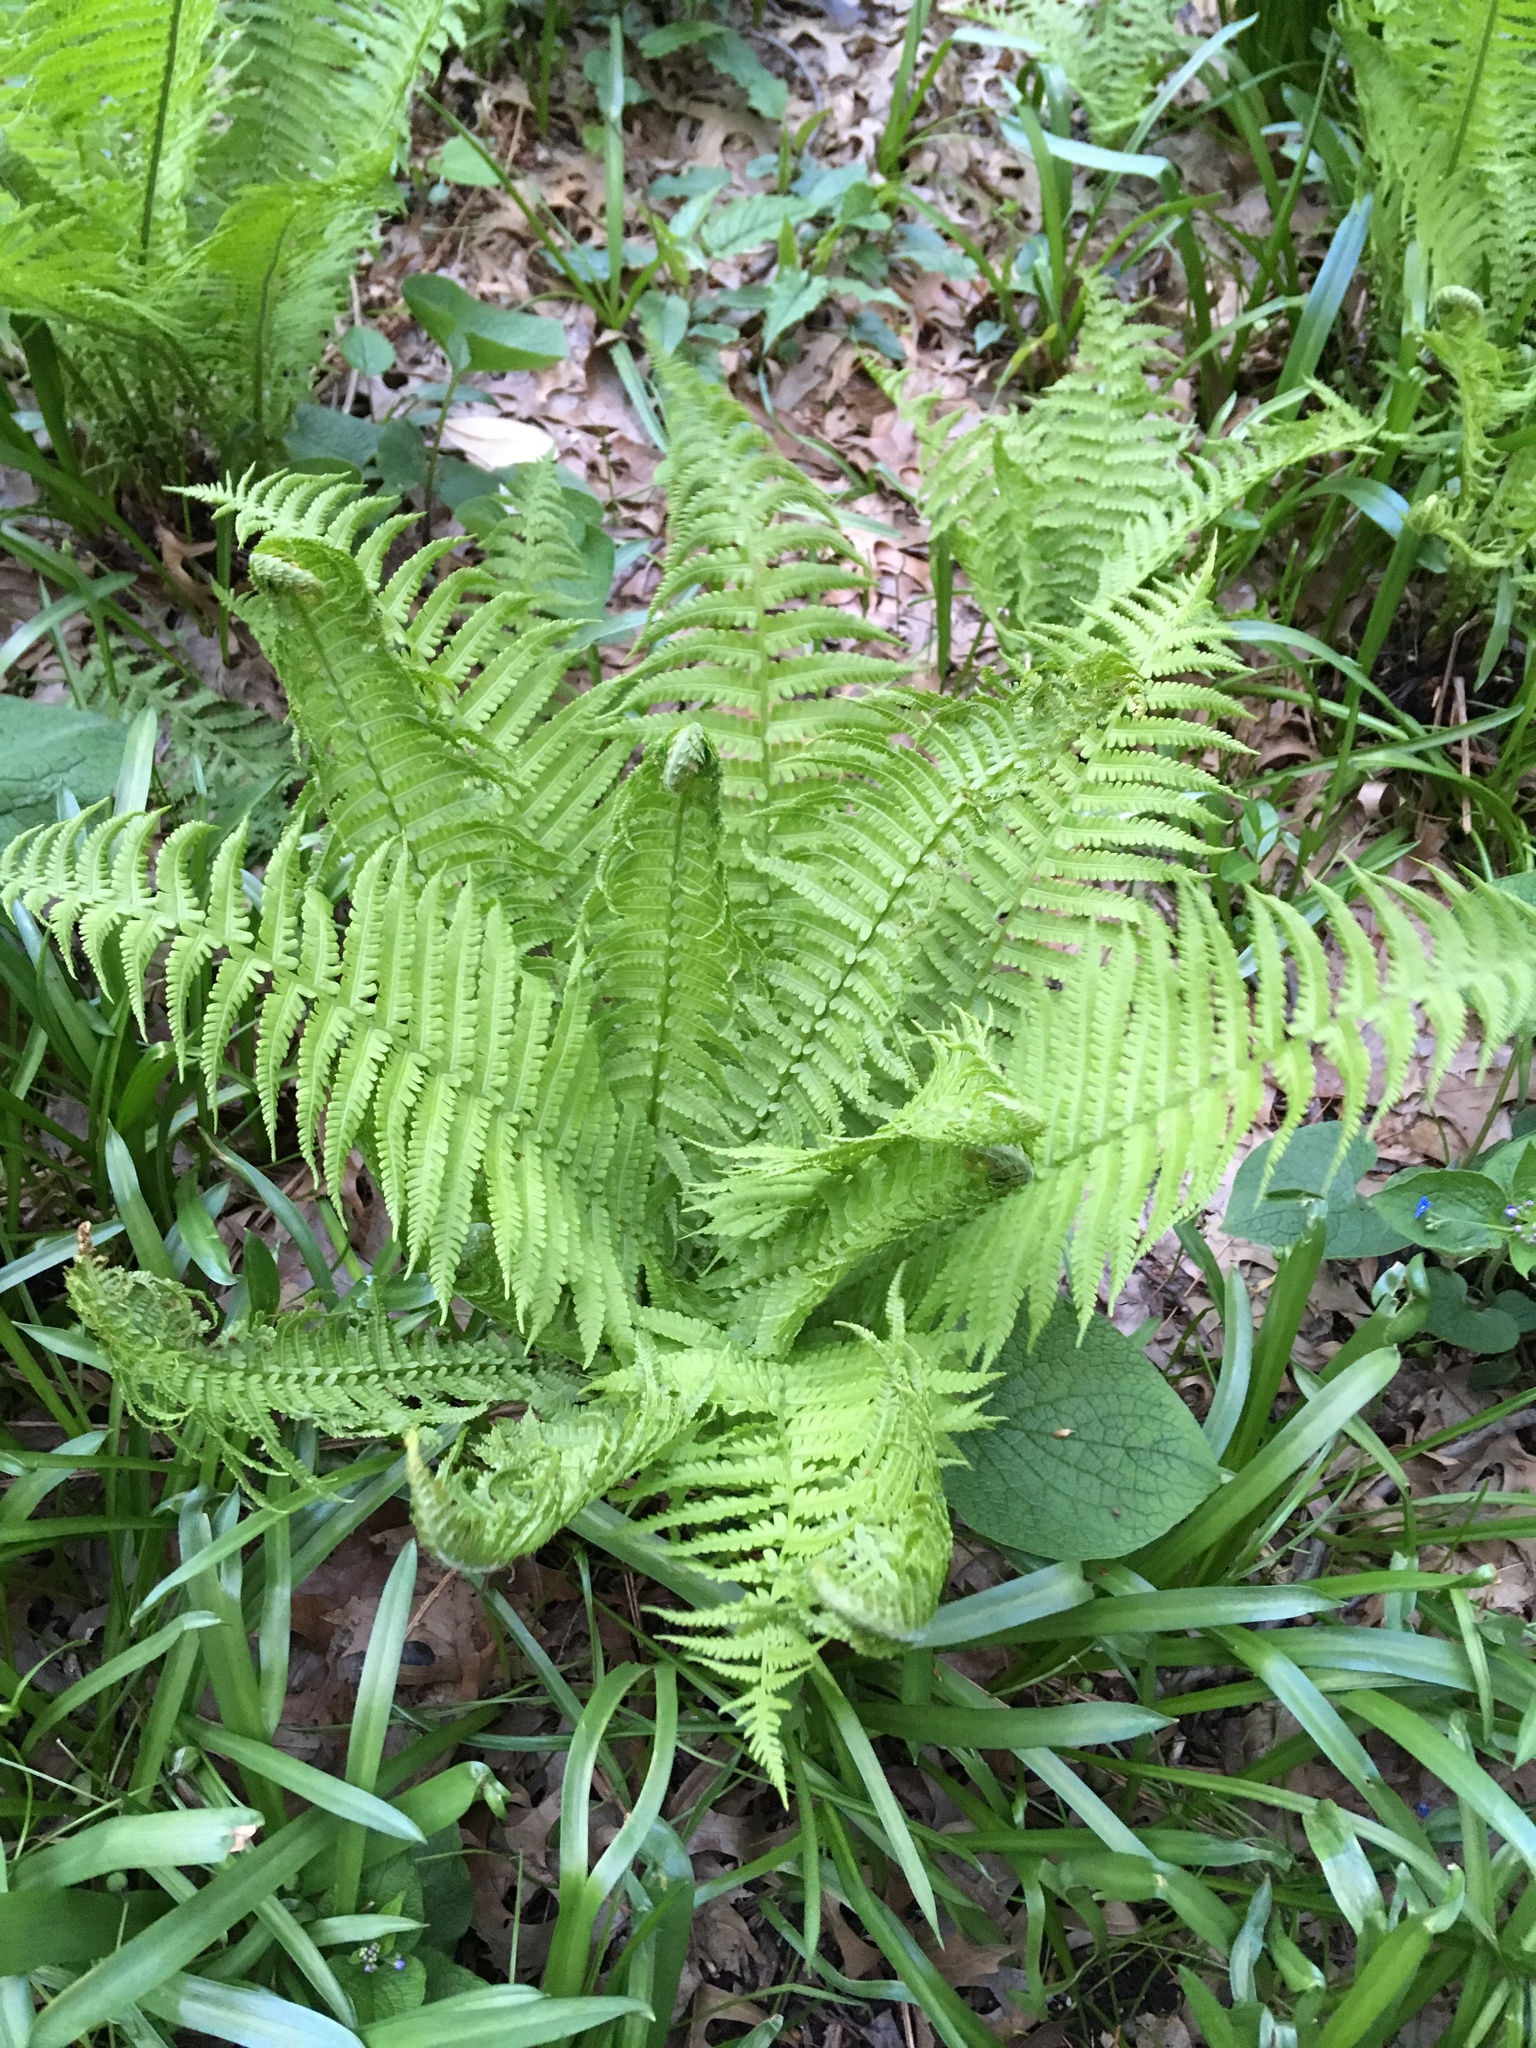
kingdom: Plantae
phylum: Tracheophyta
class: Polypodiopsida
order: Polypodiales
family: Onocleaceae
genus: Matteuccia
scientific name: Matteuccia struthiopteris
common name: Ostrich fern
